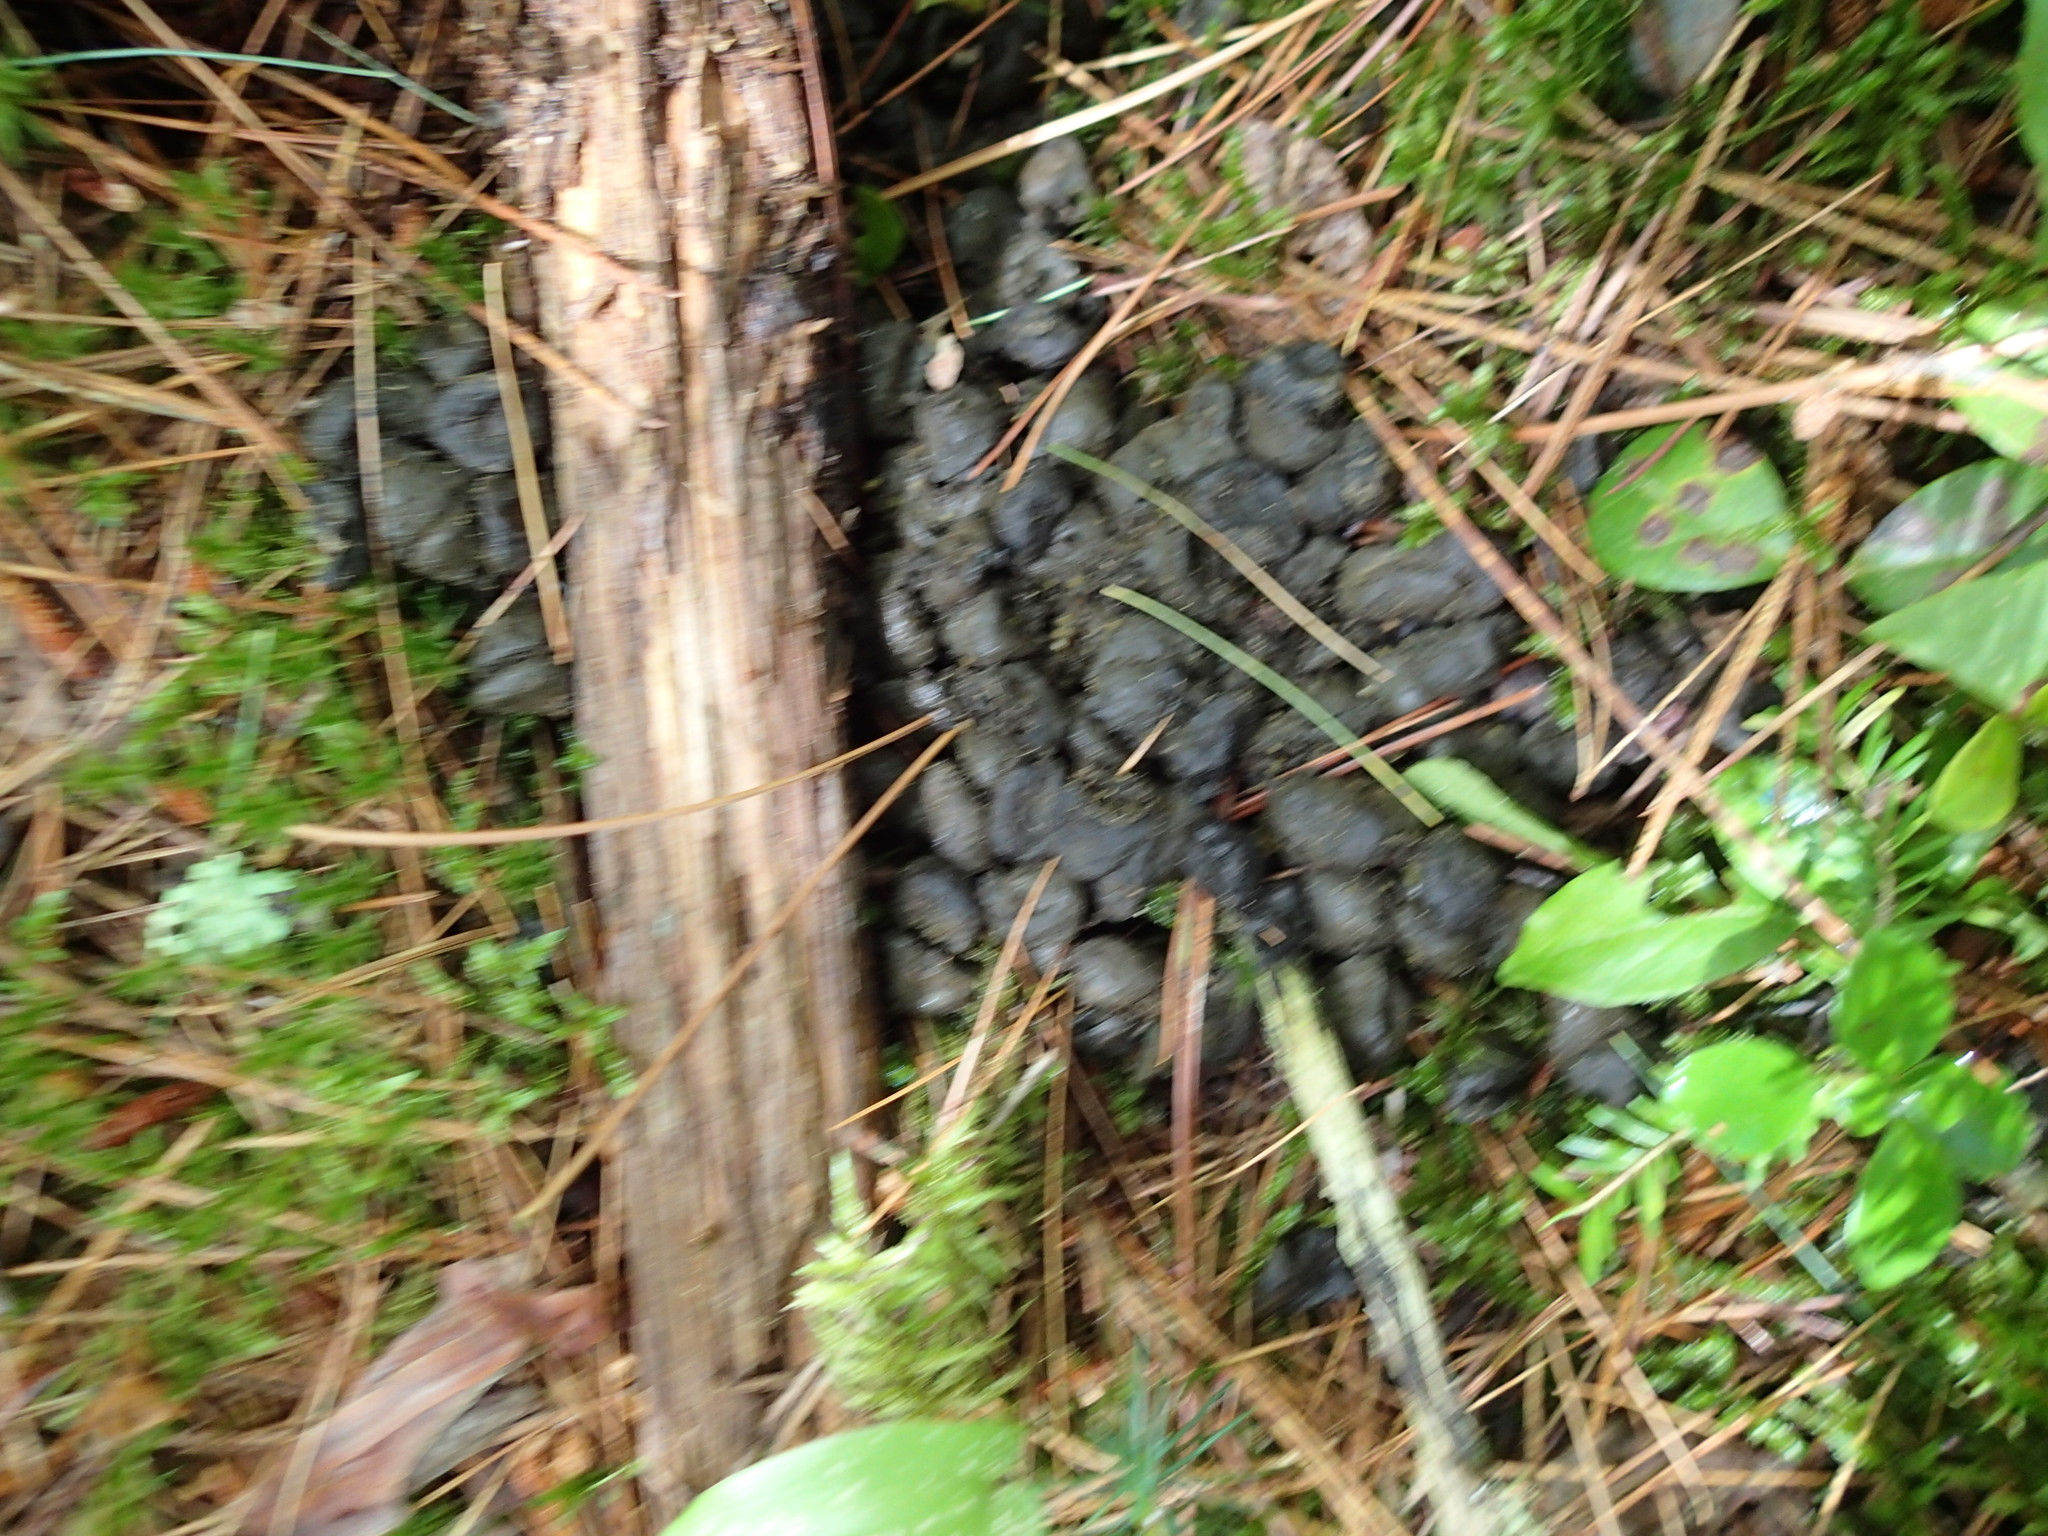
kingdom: Animalia
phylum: Chordata
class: Mammalia
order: Artiodactyla
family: Cervidae
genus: Odocoileus
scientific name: Odocoileus virginianus
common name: White-tailed deer
